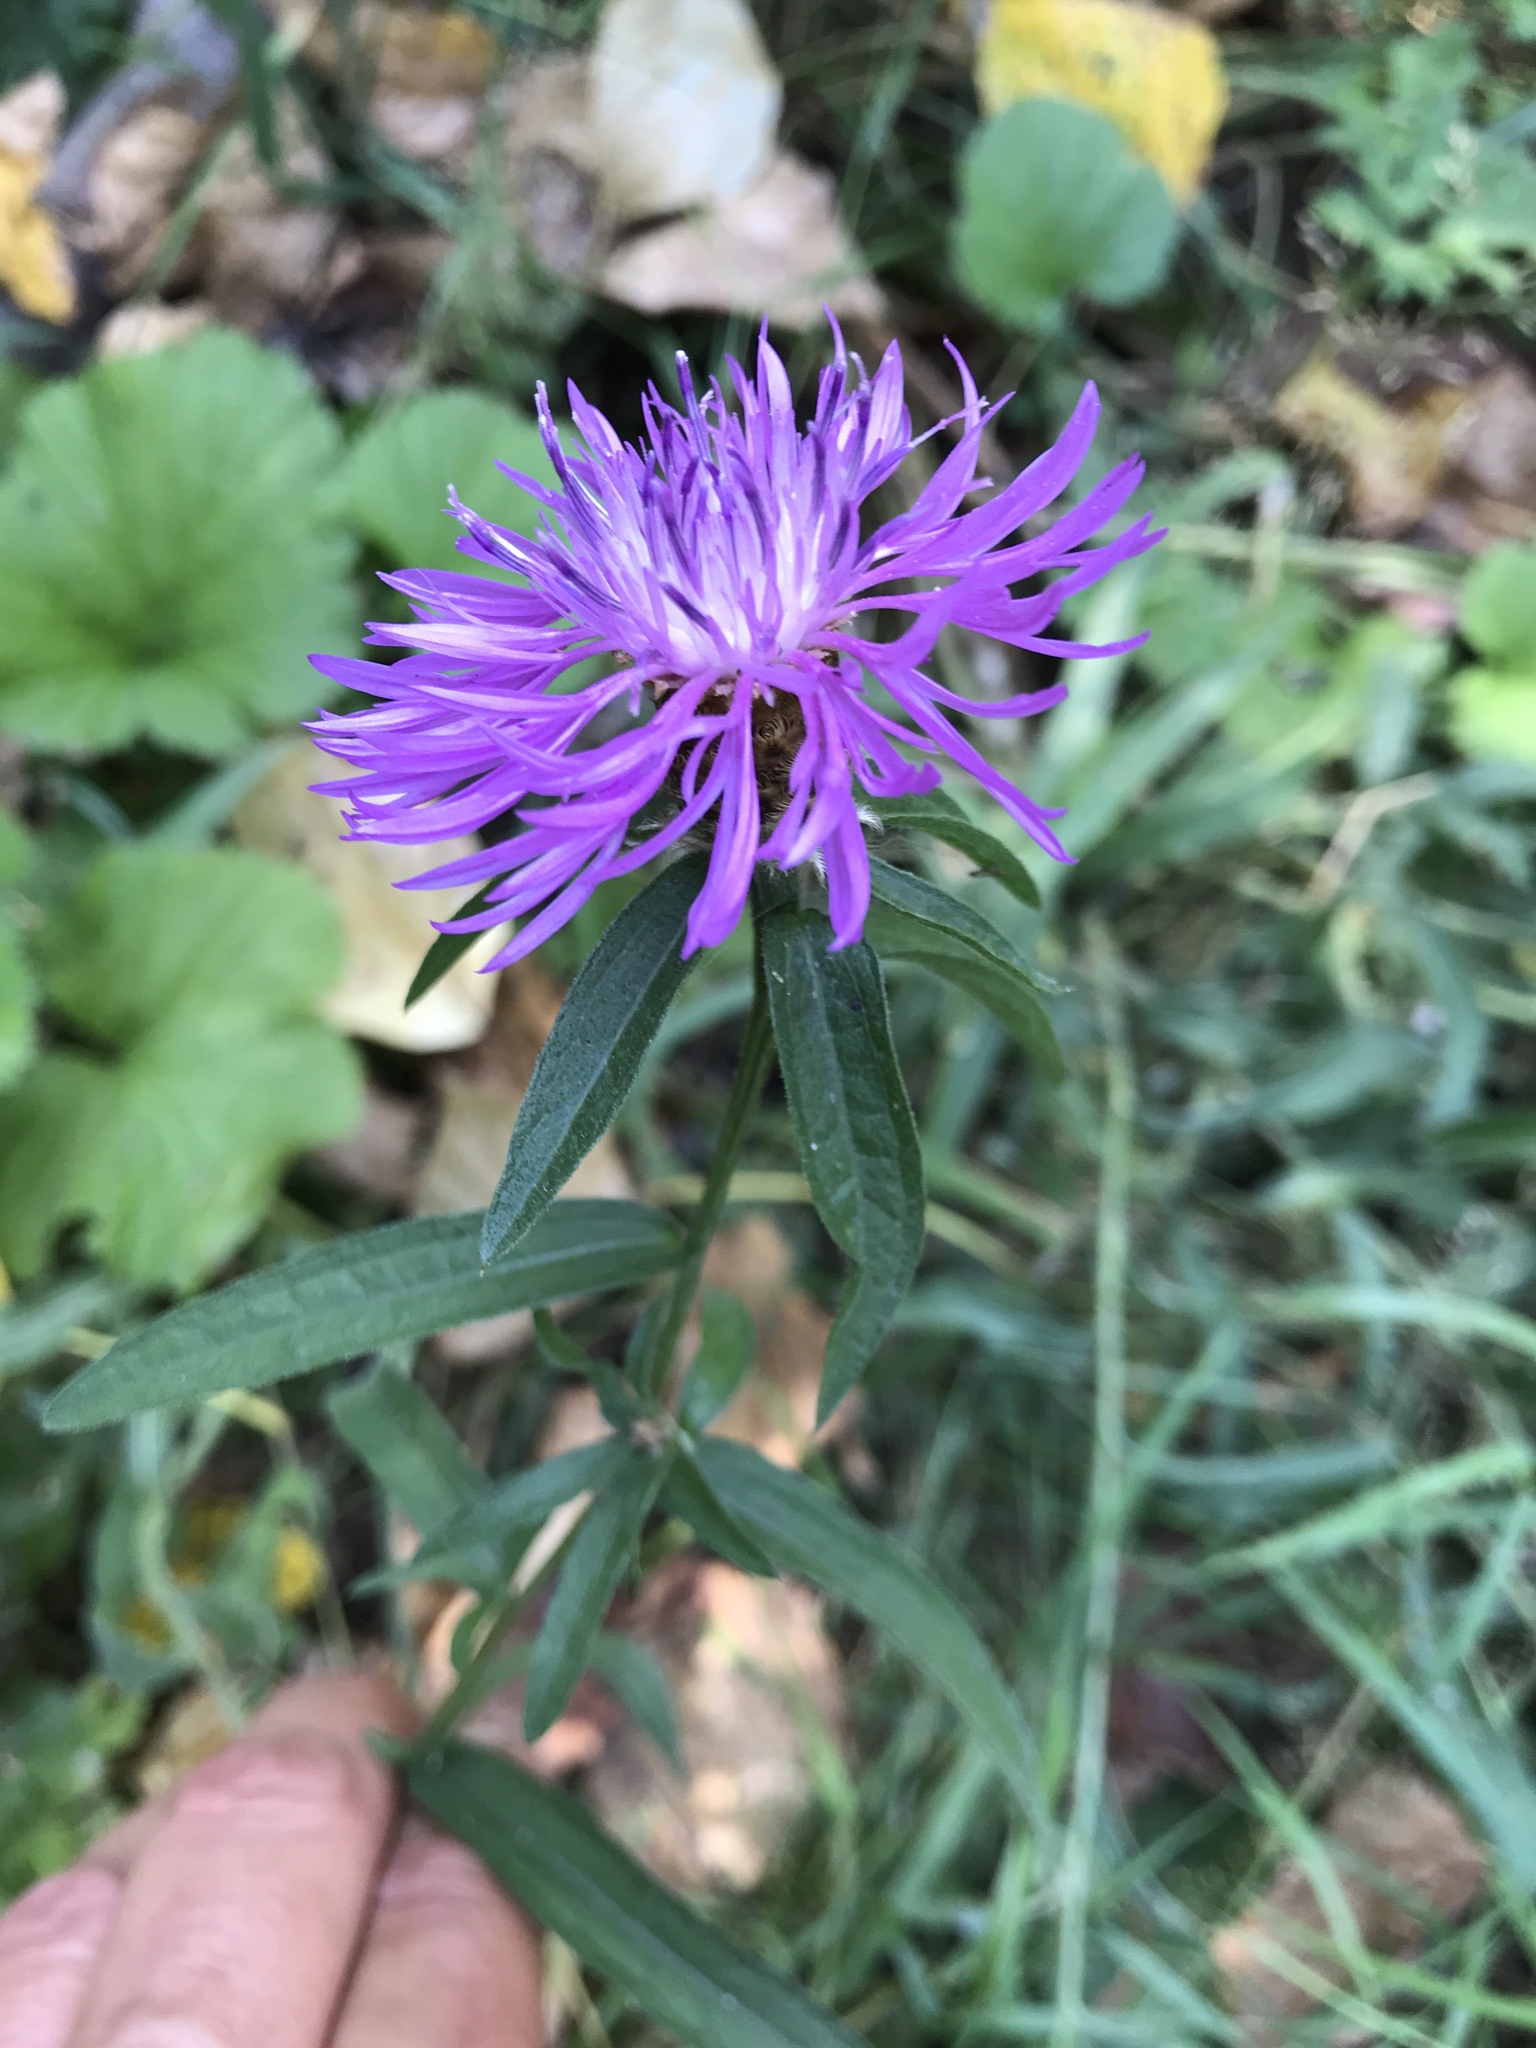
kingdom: Plantae
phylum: Tracheophyta
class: Magnoliopsida
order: Asterales
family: Asteraceae
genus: Centaurea
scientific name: Centaurea stoebe
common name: Spotted knapweed
